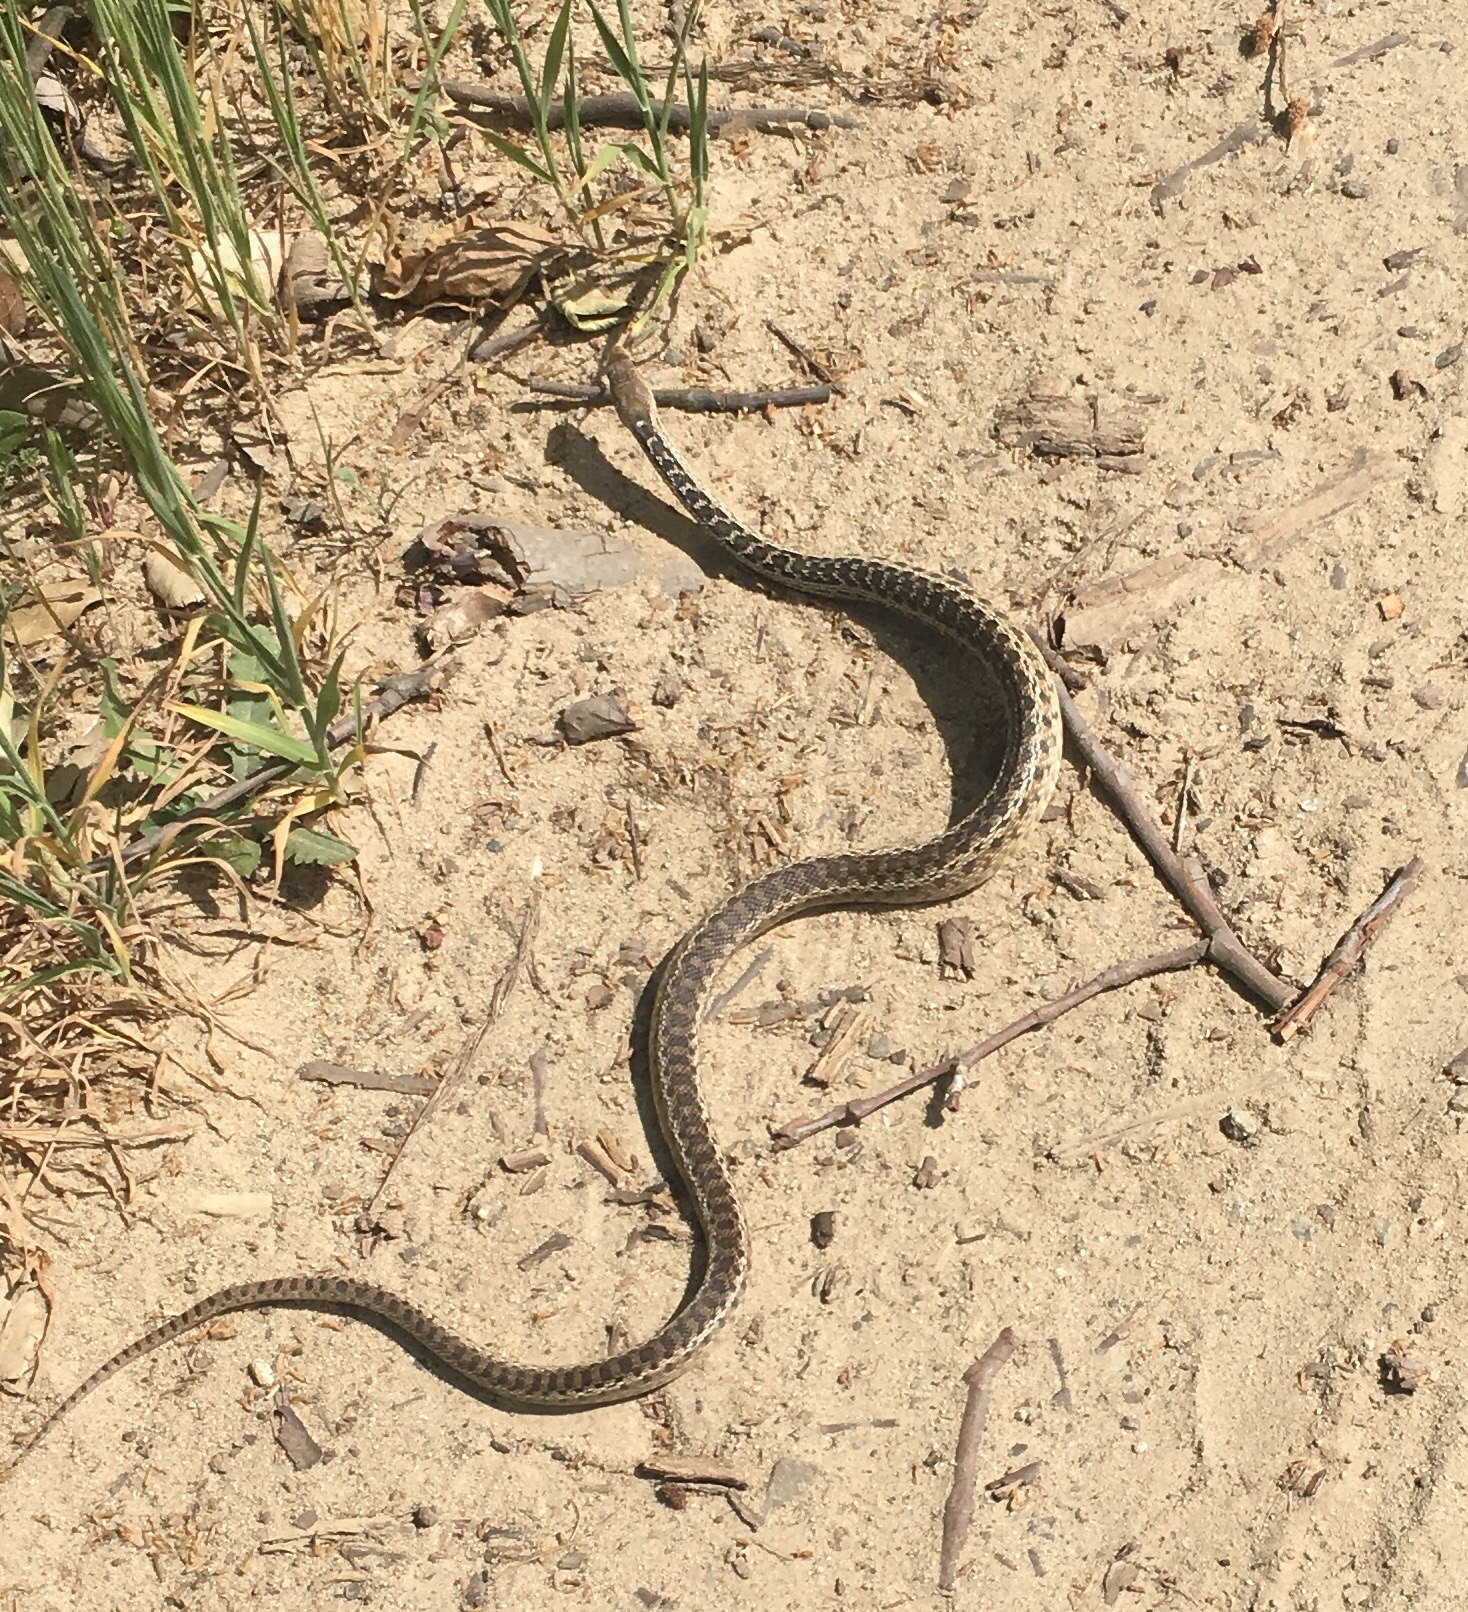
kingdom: Animalia
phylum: Chordata
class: Squamata
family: Colubridae
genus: Pituophis
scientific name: Pituophis catenifer
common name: Gopher snake
